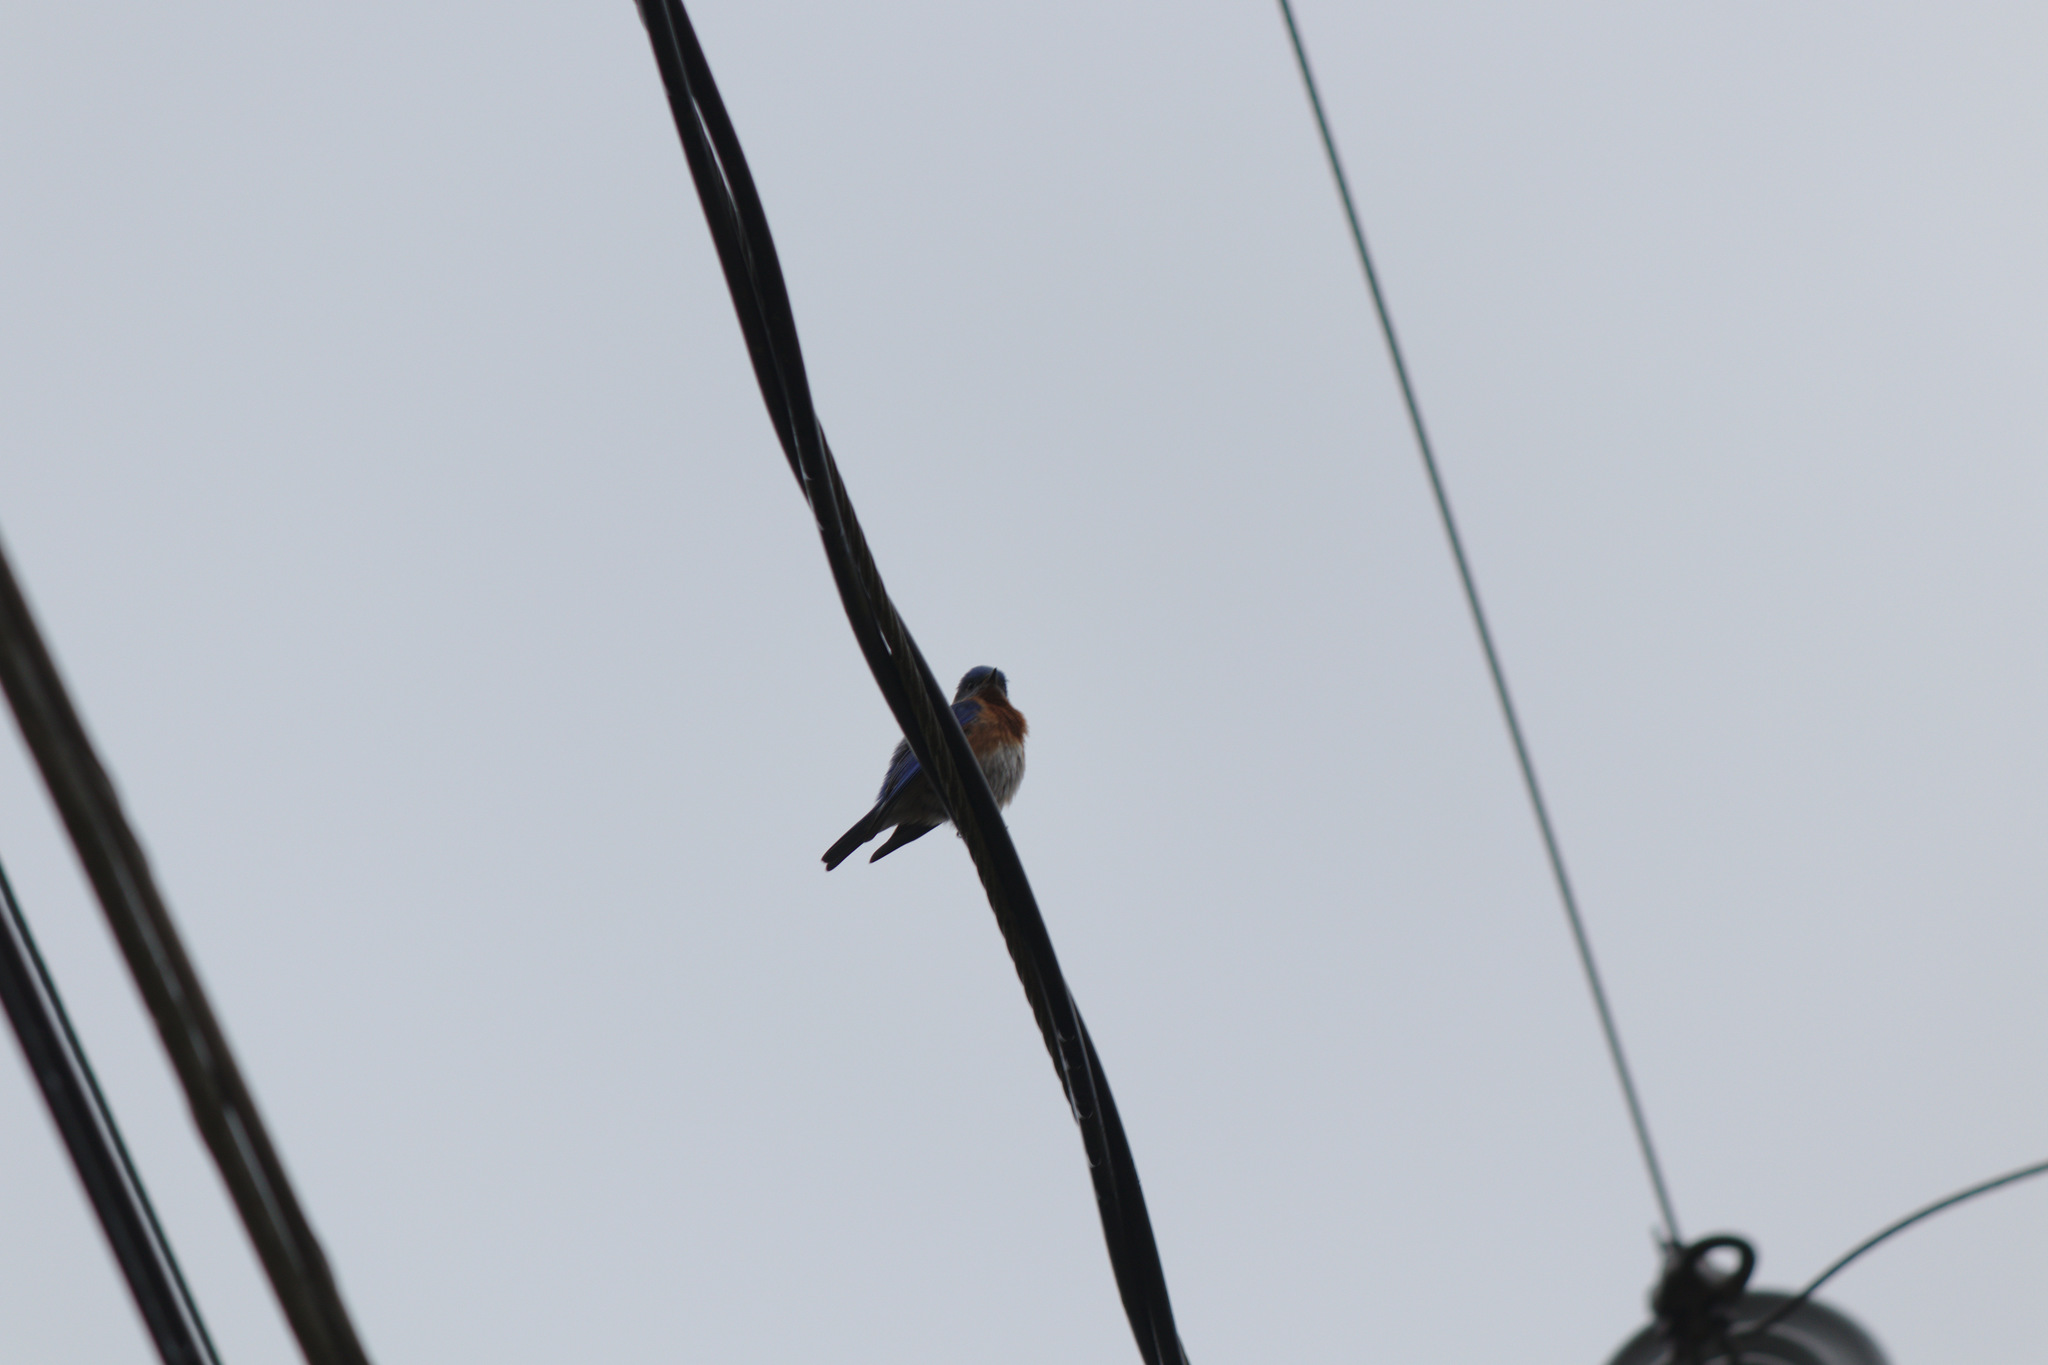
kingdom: Animalia
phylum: Chordata
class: Aves
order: Passeriformes
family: Turdidae
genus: Sialia
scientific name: Sialia sialis
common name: Eastern bluebird
